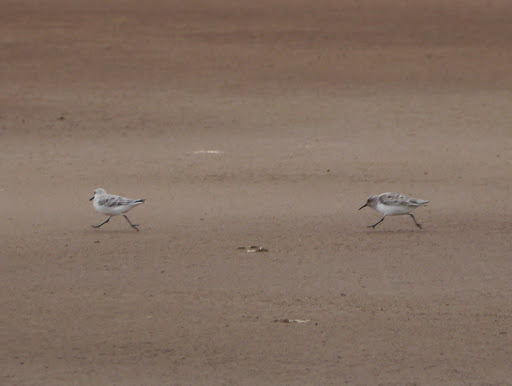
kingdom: Animalia
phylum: Chordata
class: Aves
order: Charadriiformes
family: Scolopacidae
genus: Calidris
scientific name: Calidris alba
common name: Sanderling
